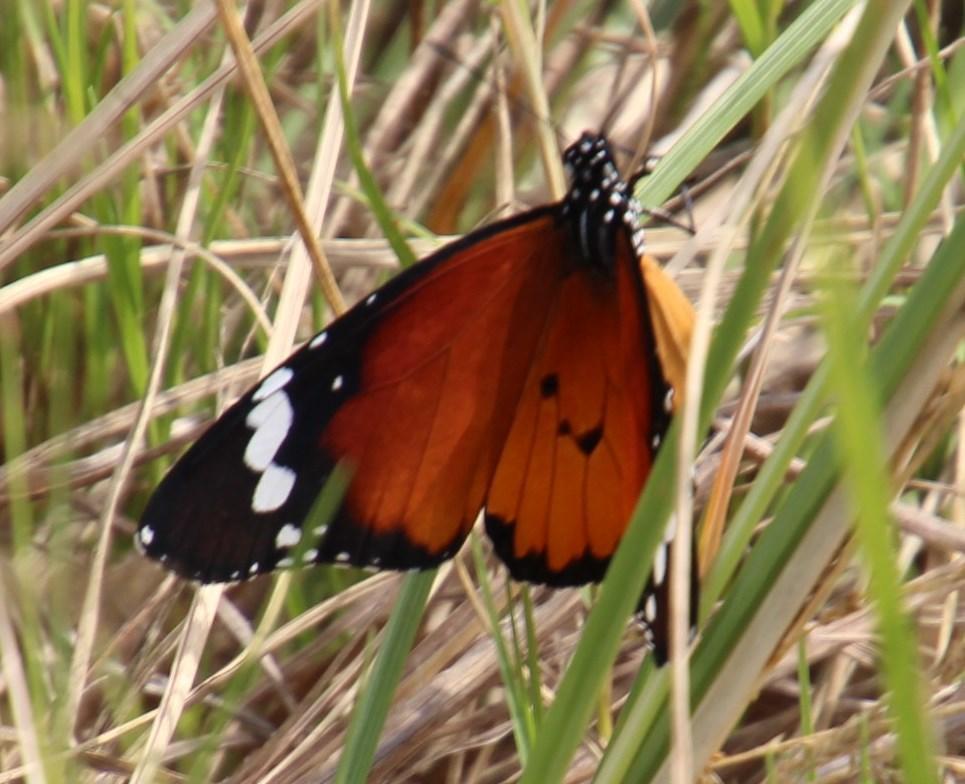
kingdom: Animalia
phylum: Arthropoda
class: Insecta
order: Lepidoptera
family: Nymphalidae
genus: Danaus
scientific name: Danaus chrysippus
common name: Plain tiger
